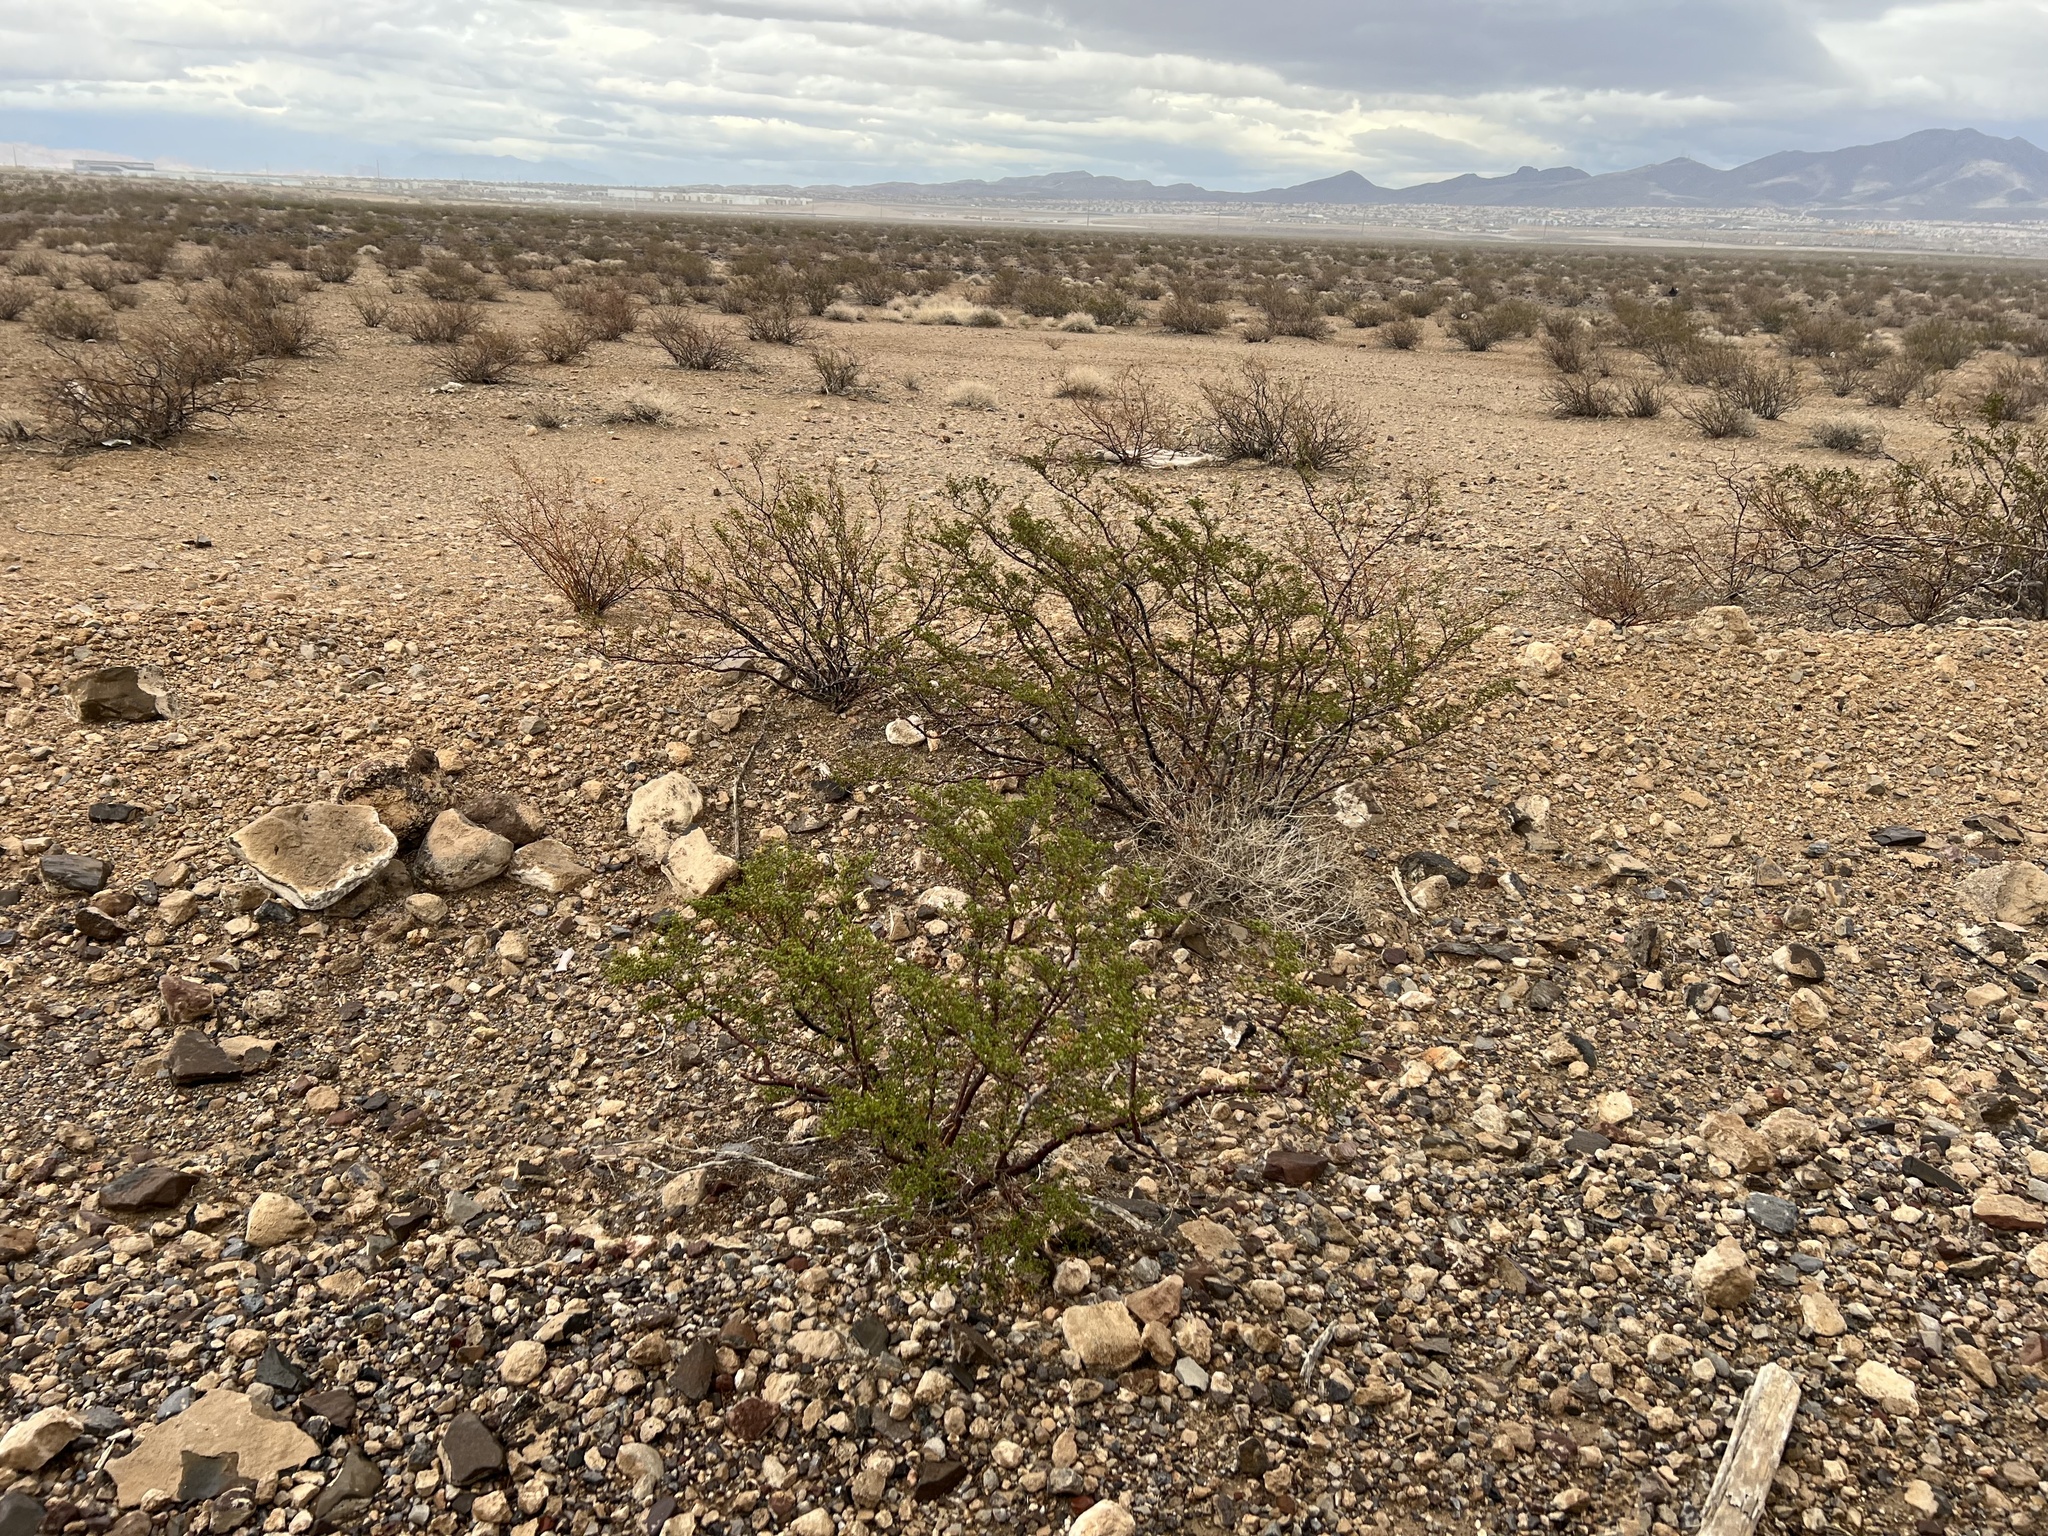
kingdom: Plantae
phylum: Tracheophyta
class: Magnoliopsida
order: Zygophyllales
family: Zygophyllaceae
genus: Larrea
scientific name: Larrea tridentata
